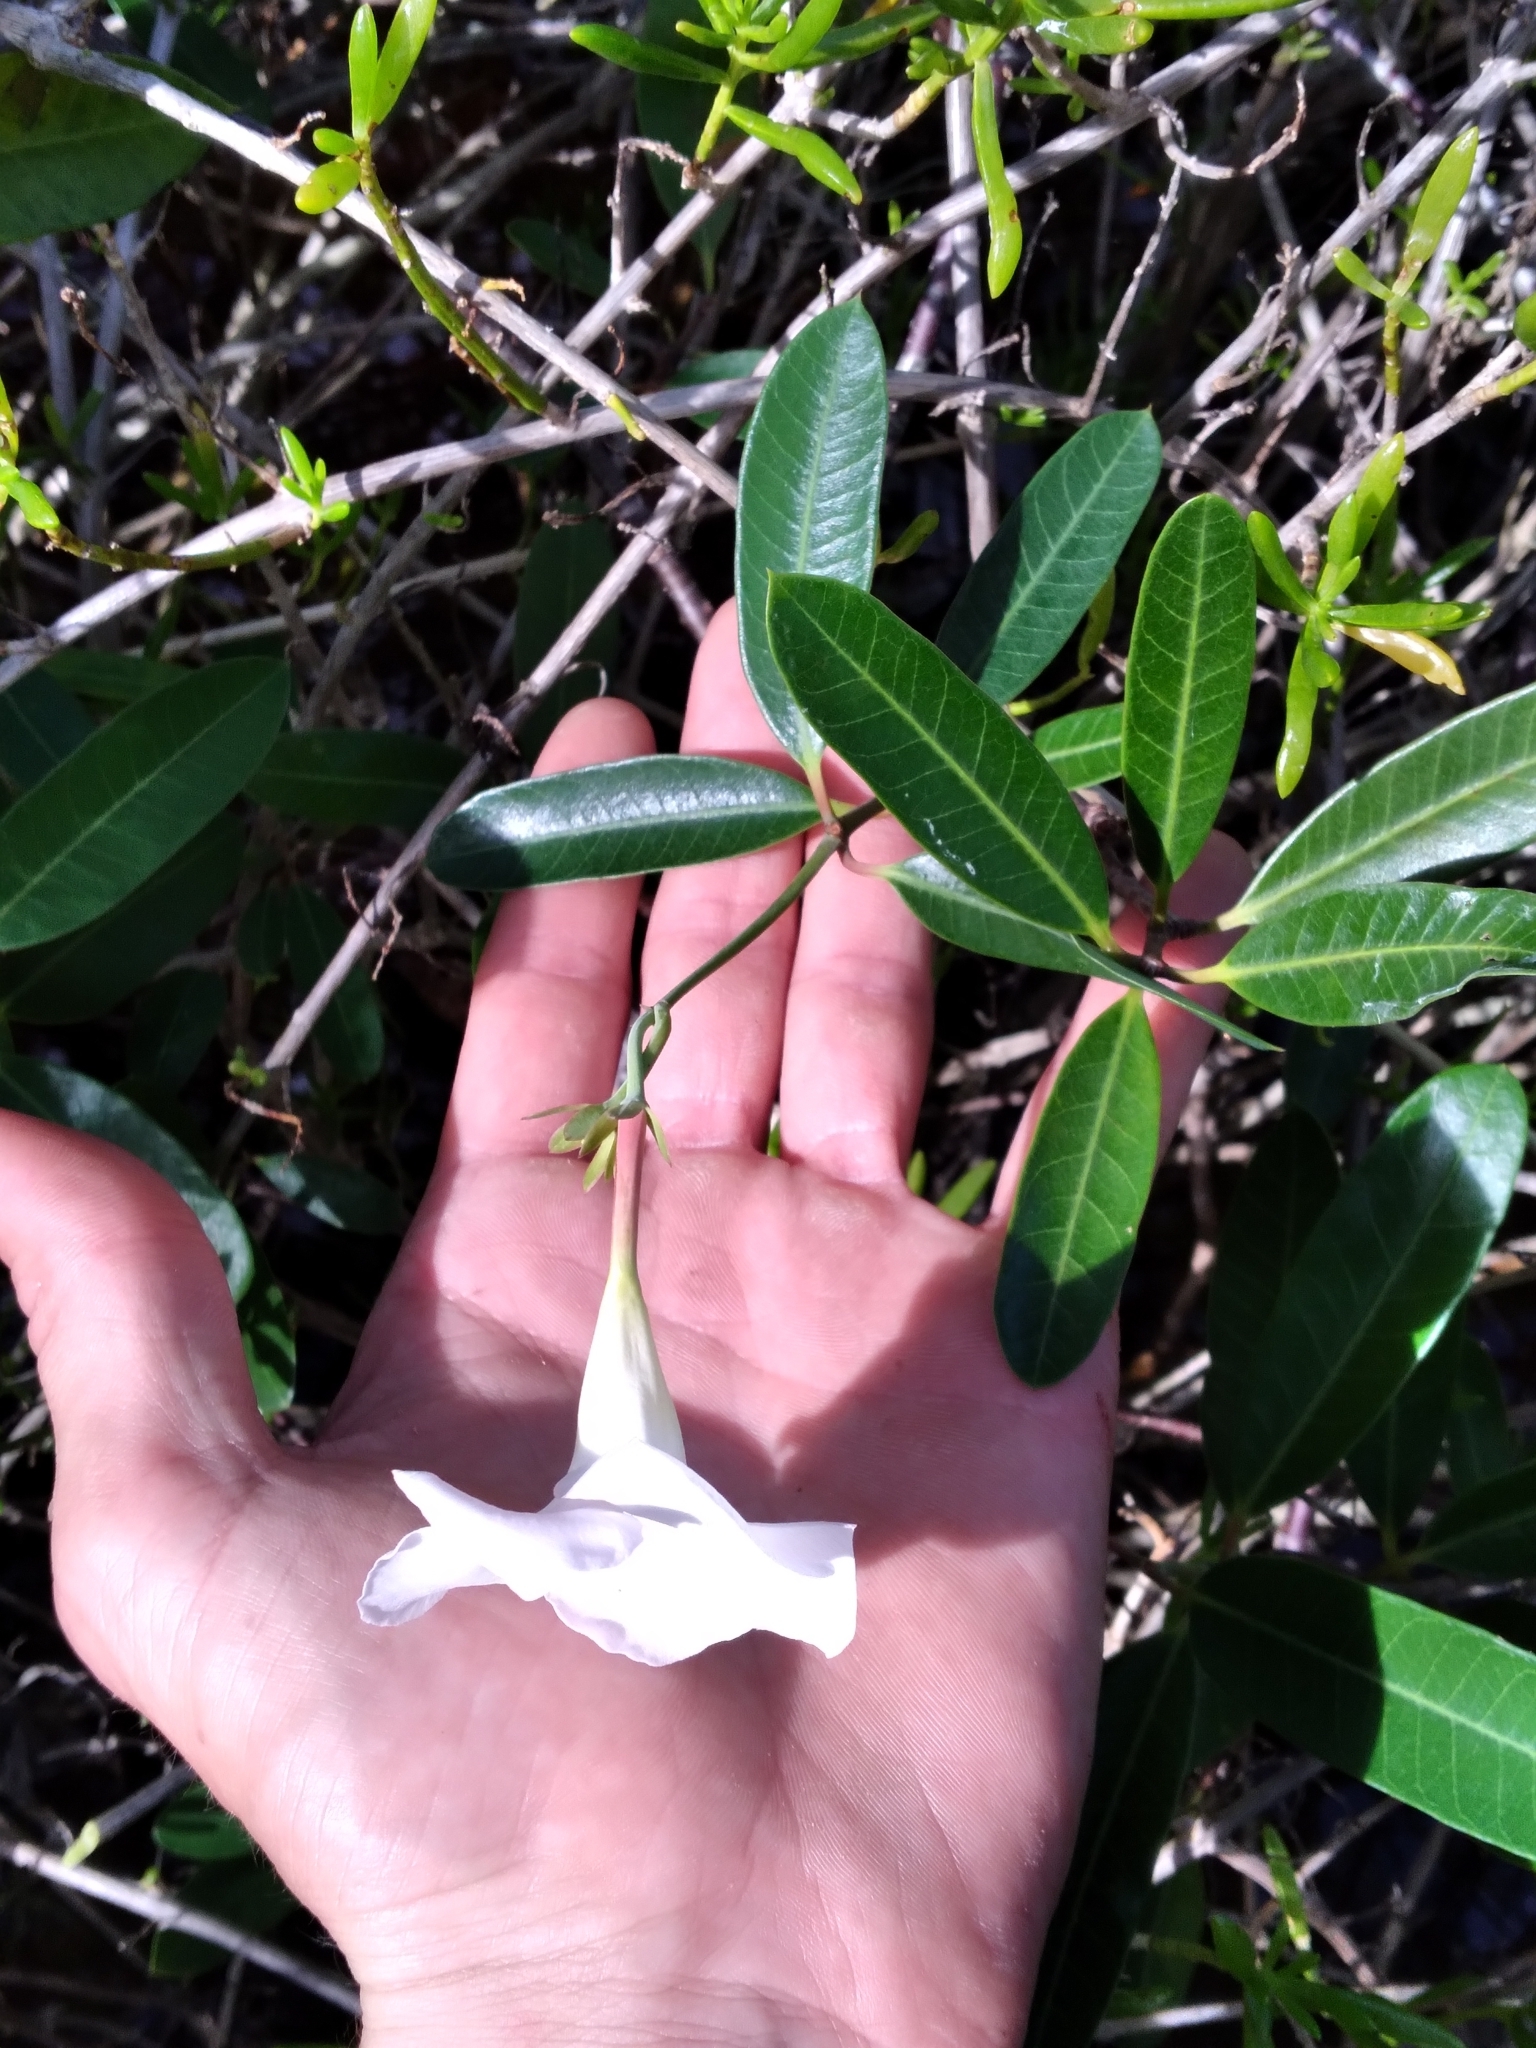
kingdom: Plantae
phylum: Tracheophyta
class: Magnoliopsida
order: Gentianales
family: Apocynaceae
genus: Rhabdadenia
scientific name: Rhabdadenia biflora
